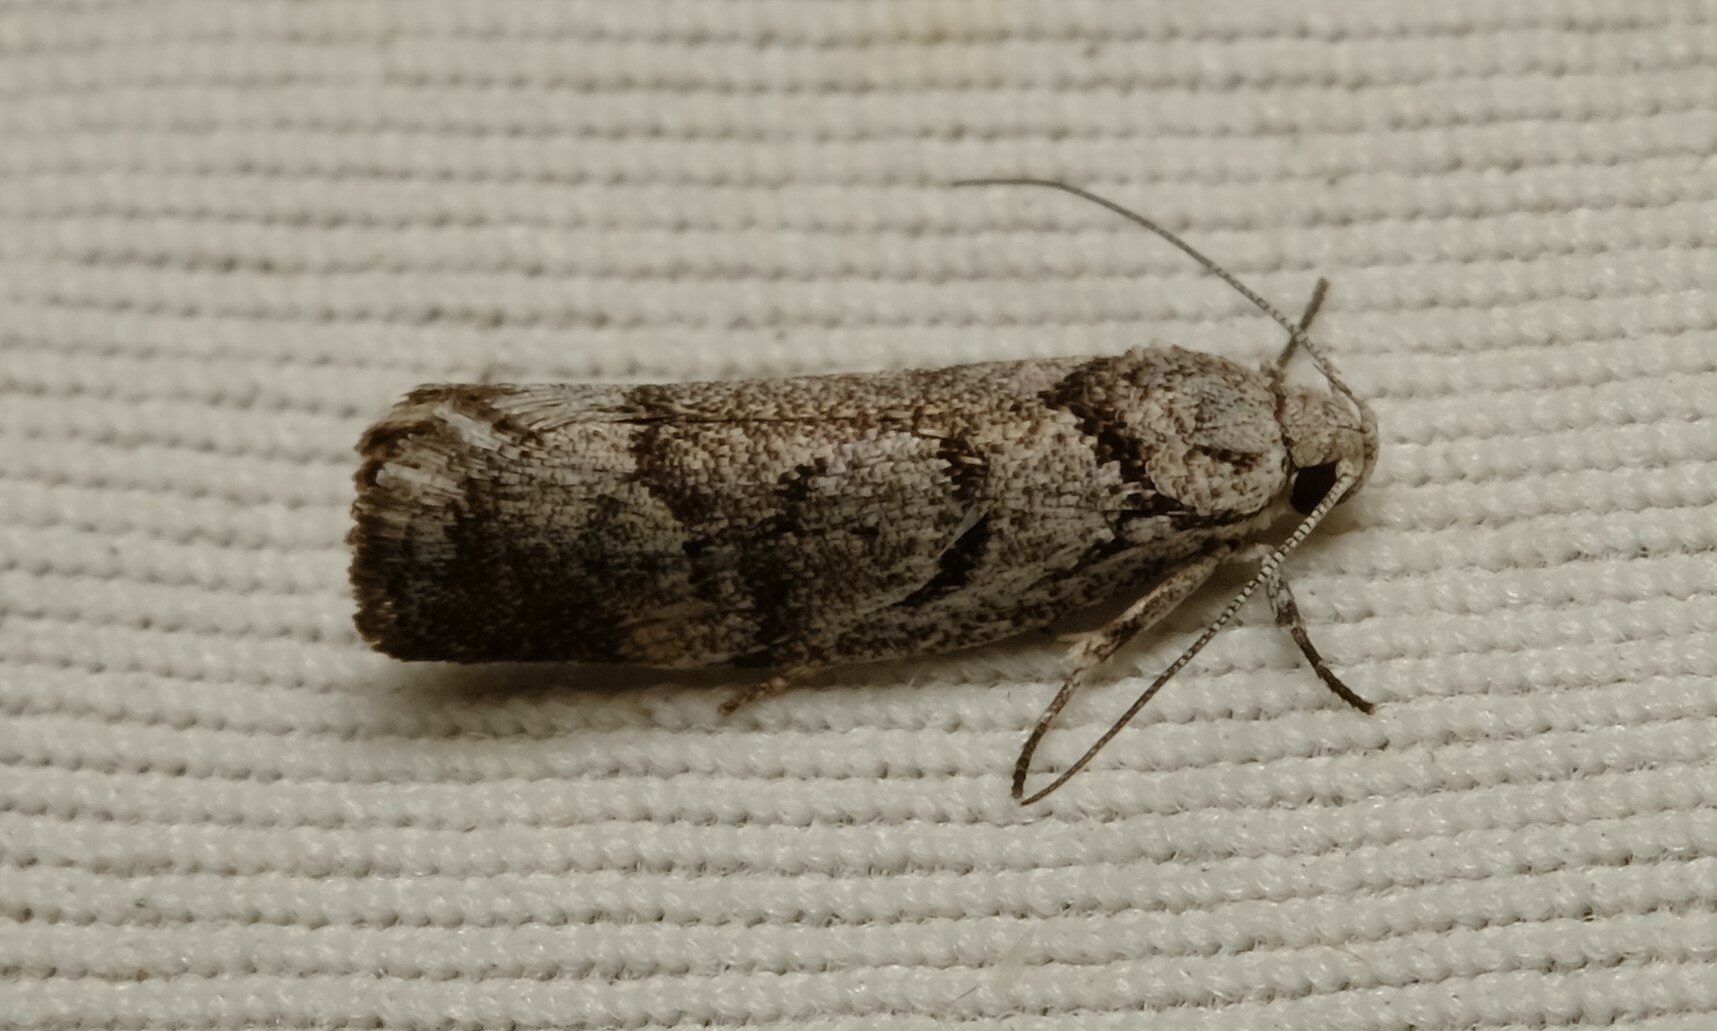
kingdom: Animalia
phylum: Arthropoda
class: Insecta
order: Lepidoptera
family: Xyloryctidae
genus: Lichenaula
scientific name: Lichenaula onychodes
